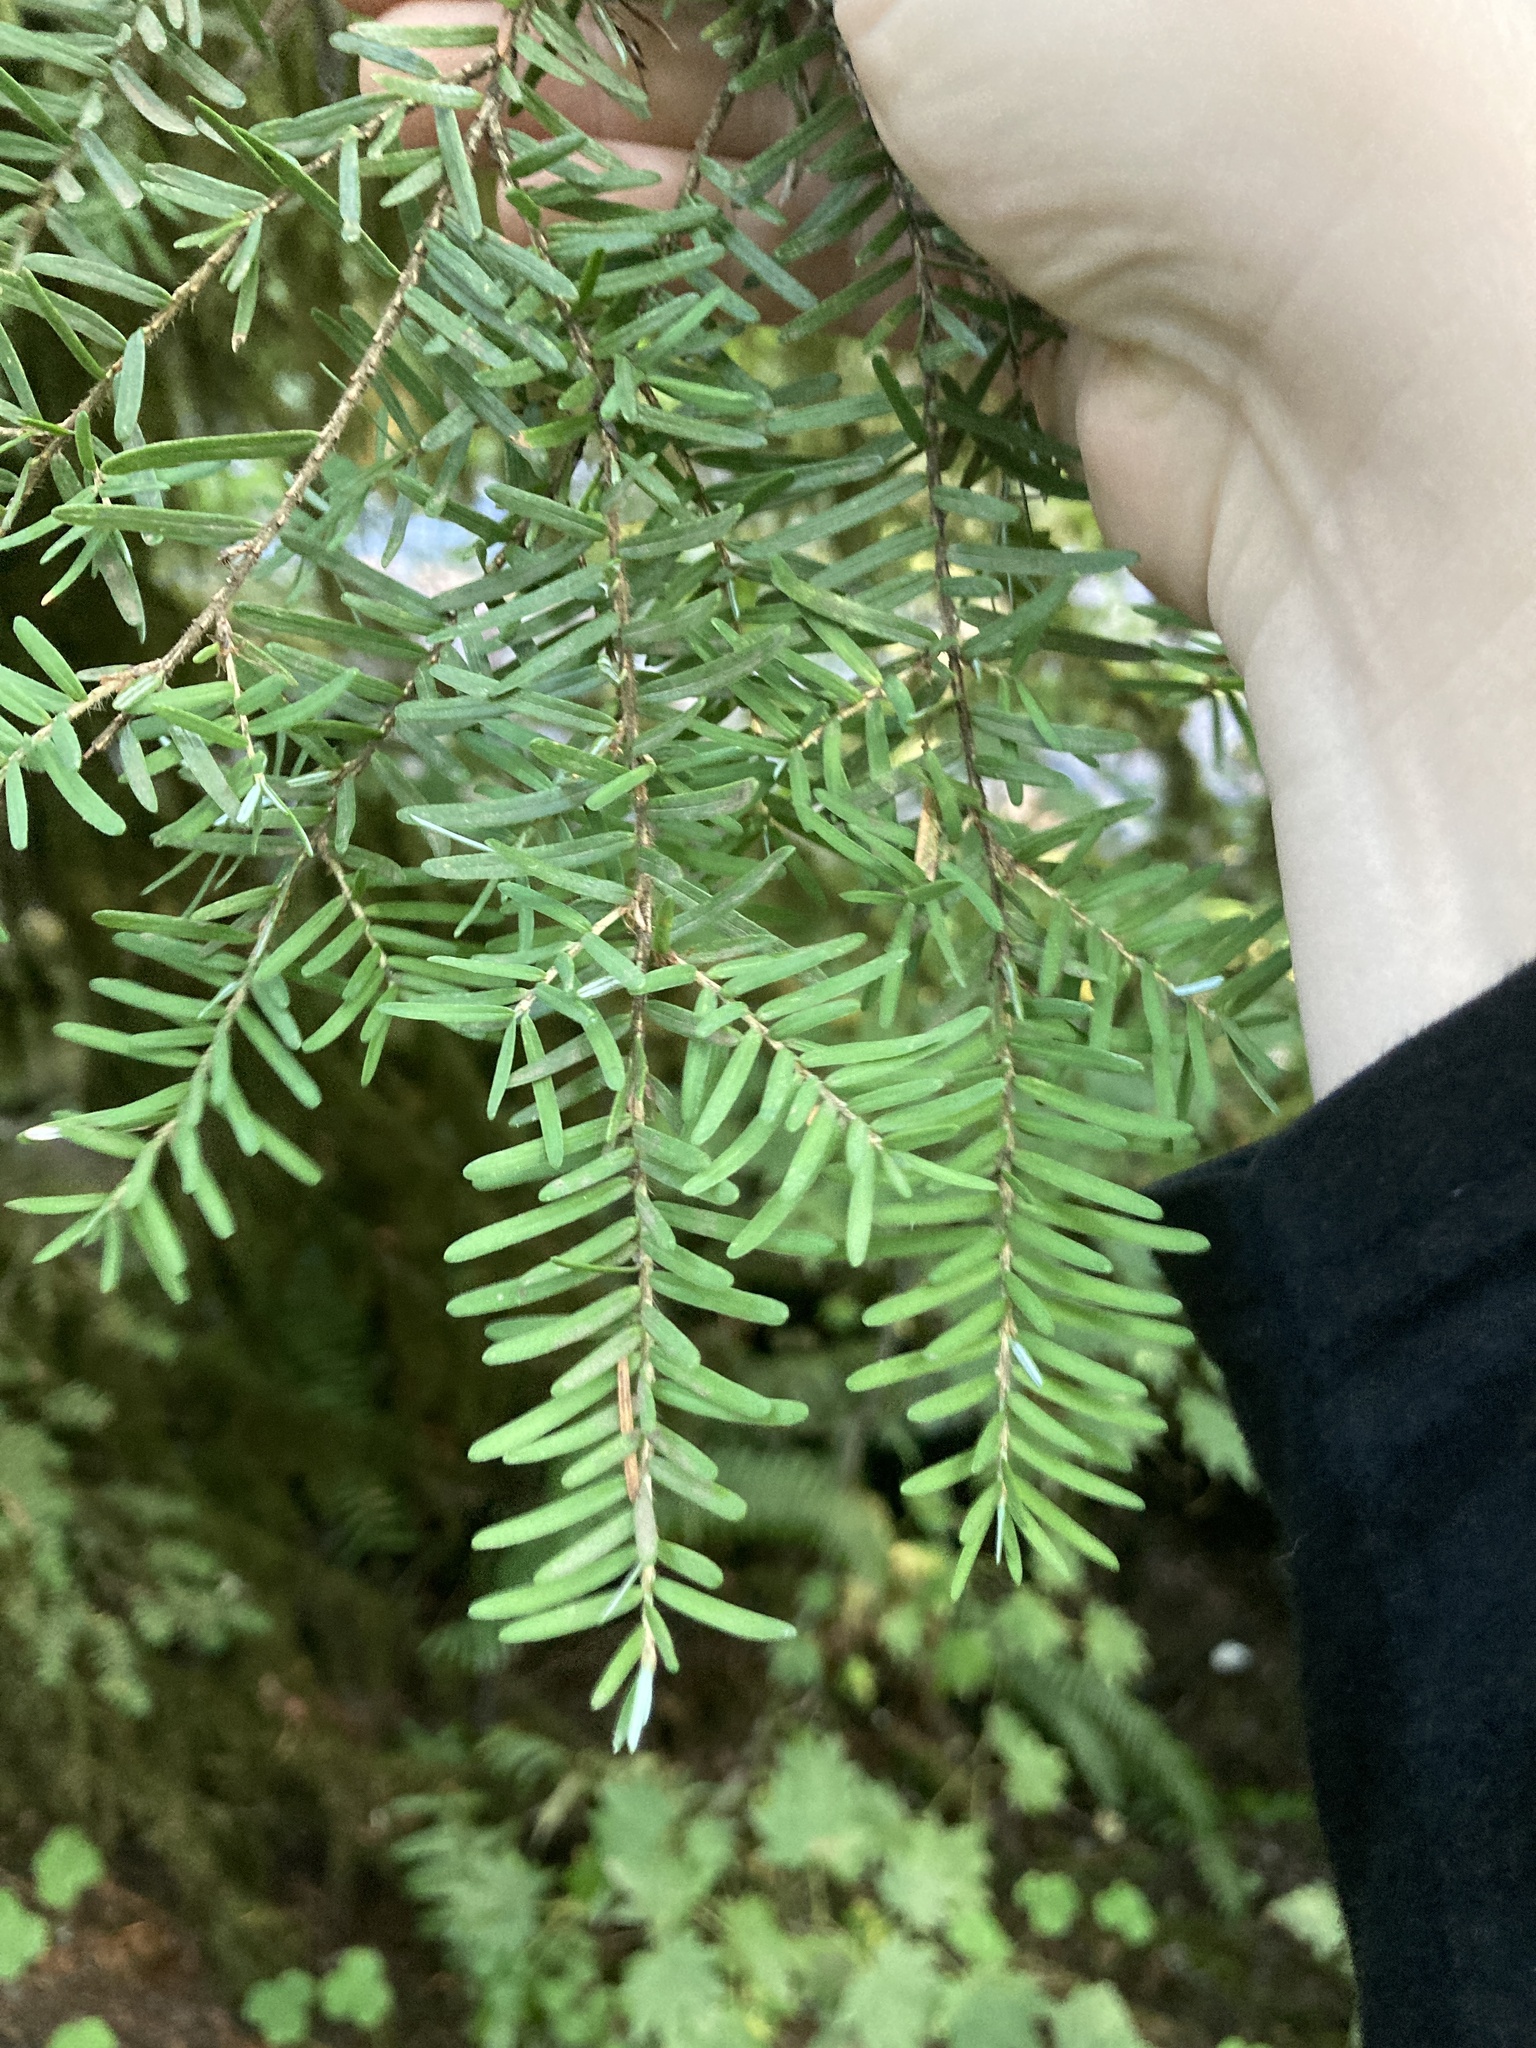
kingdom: Plantae
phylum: Tracheophyta
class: Pinopsida
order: Pinales
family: Pinaceae
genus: Tsuga
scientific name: Tsuga heterophylla
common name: Western hemlock
